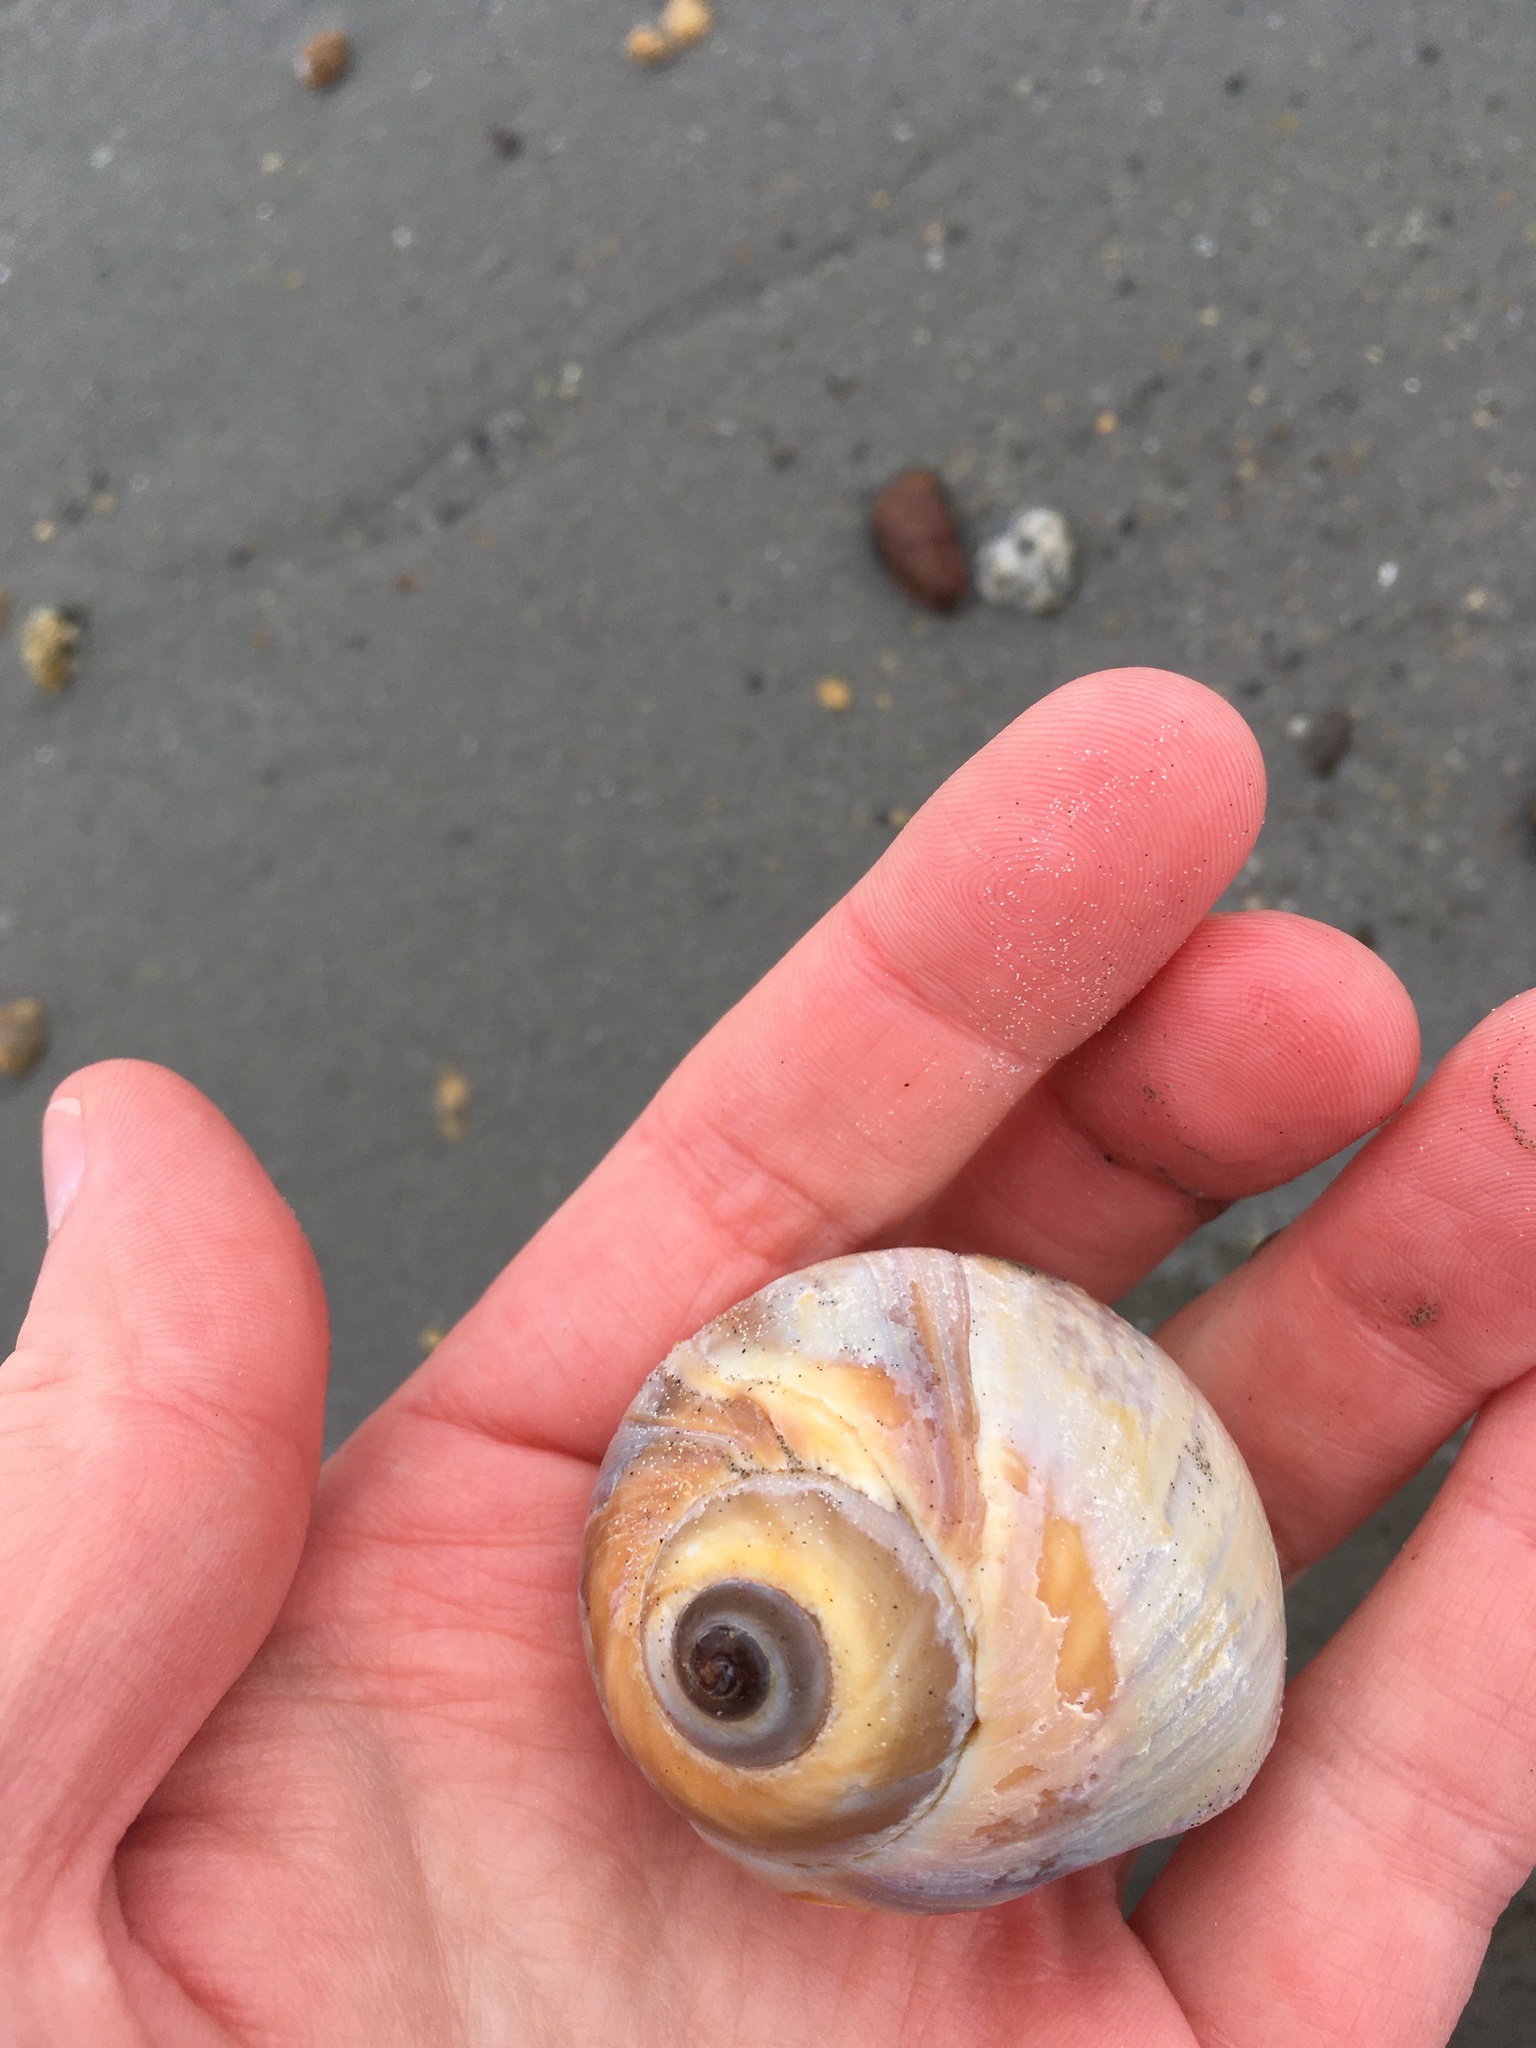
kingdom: Animalia
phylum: Mollusca
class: Gastropoda
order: Littorinimorpha
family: Naticidae
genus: Euspira
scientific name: Euspira heros
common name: Common northern moonsnail
